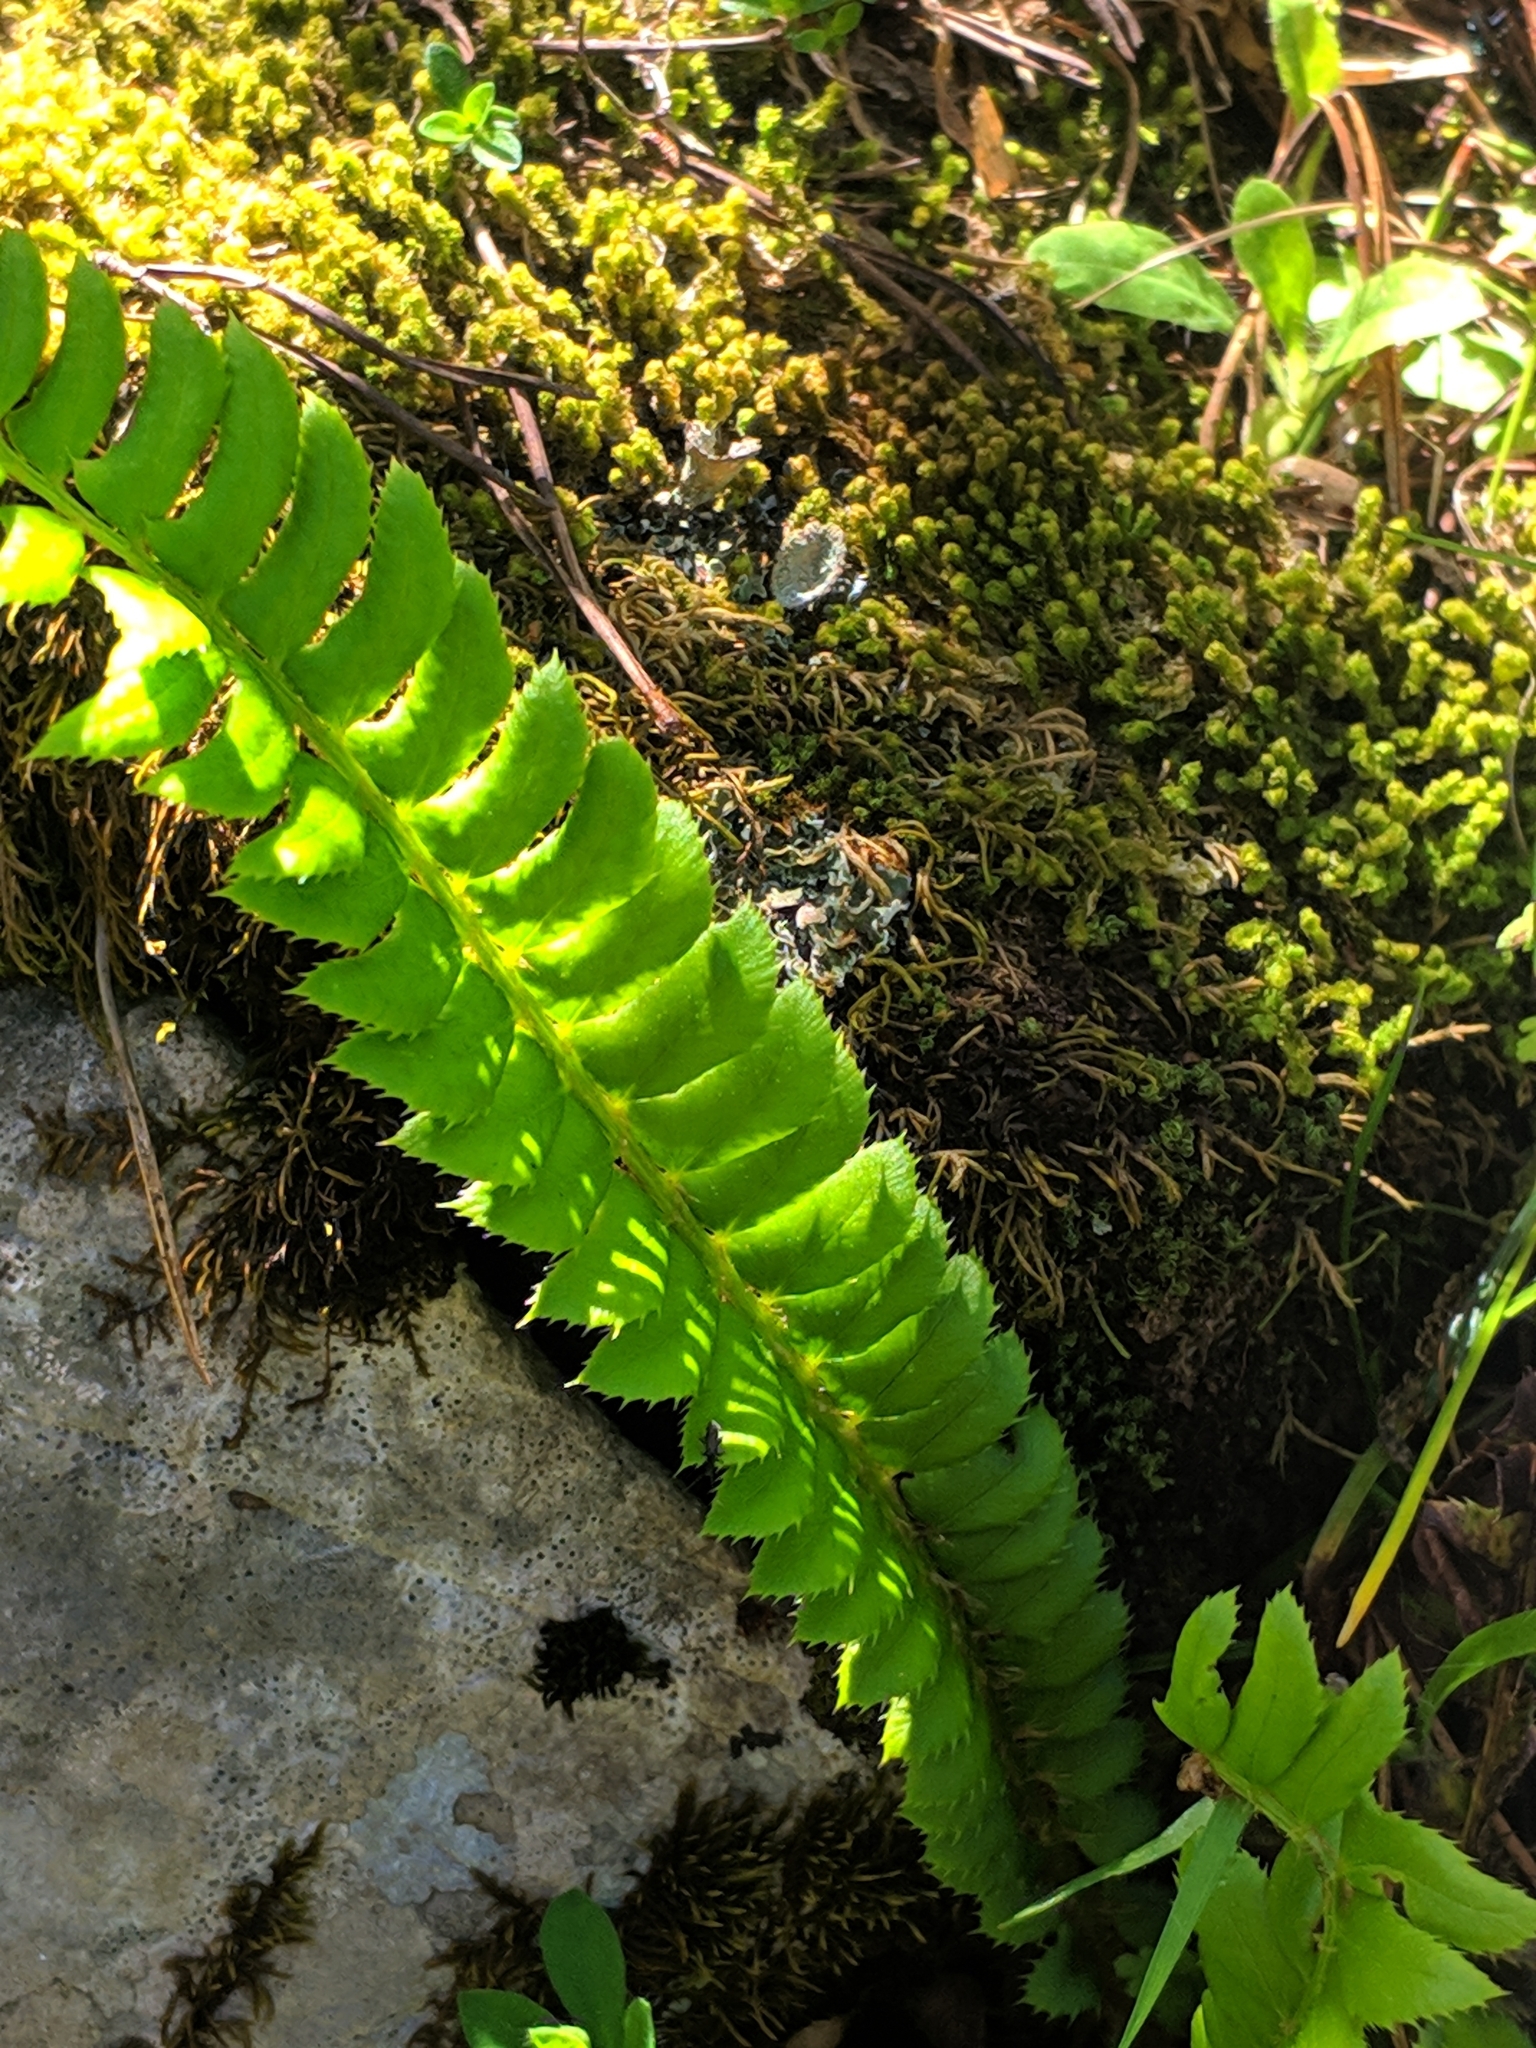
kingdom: Plantae
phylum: Tracheophyta
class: Polypodiopsida
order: Polypodiales
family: Dryopteridaceae
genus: Polystichum
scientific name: Polystichum lonchitis
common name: Holly fern
